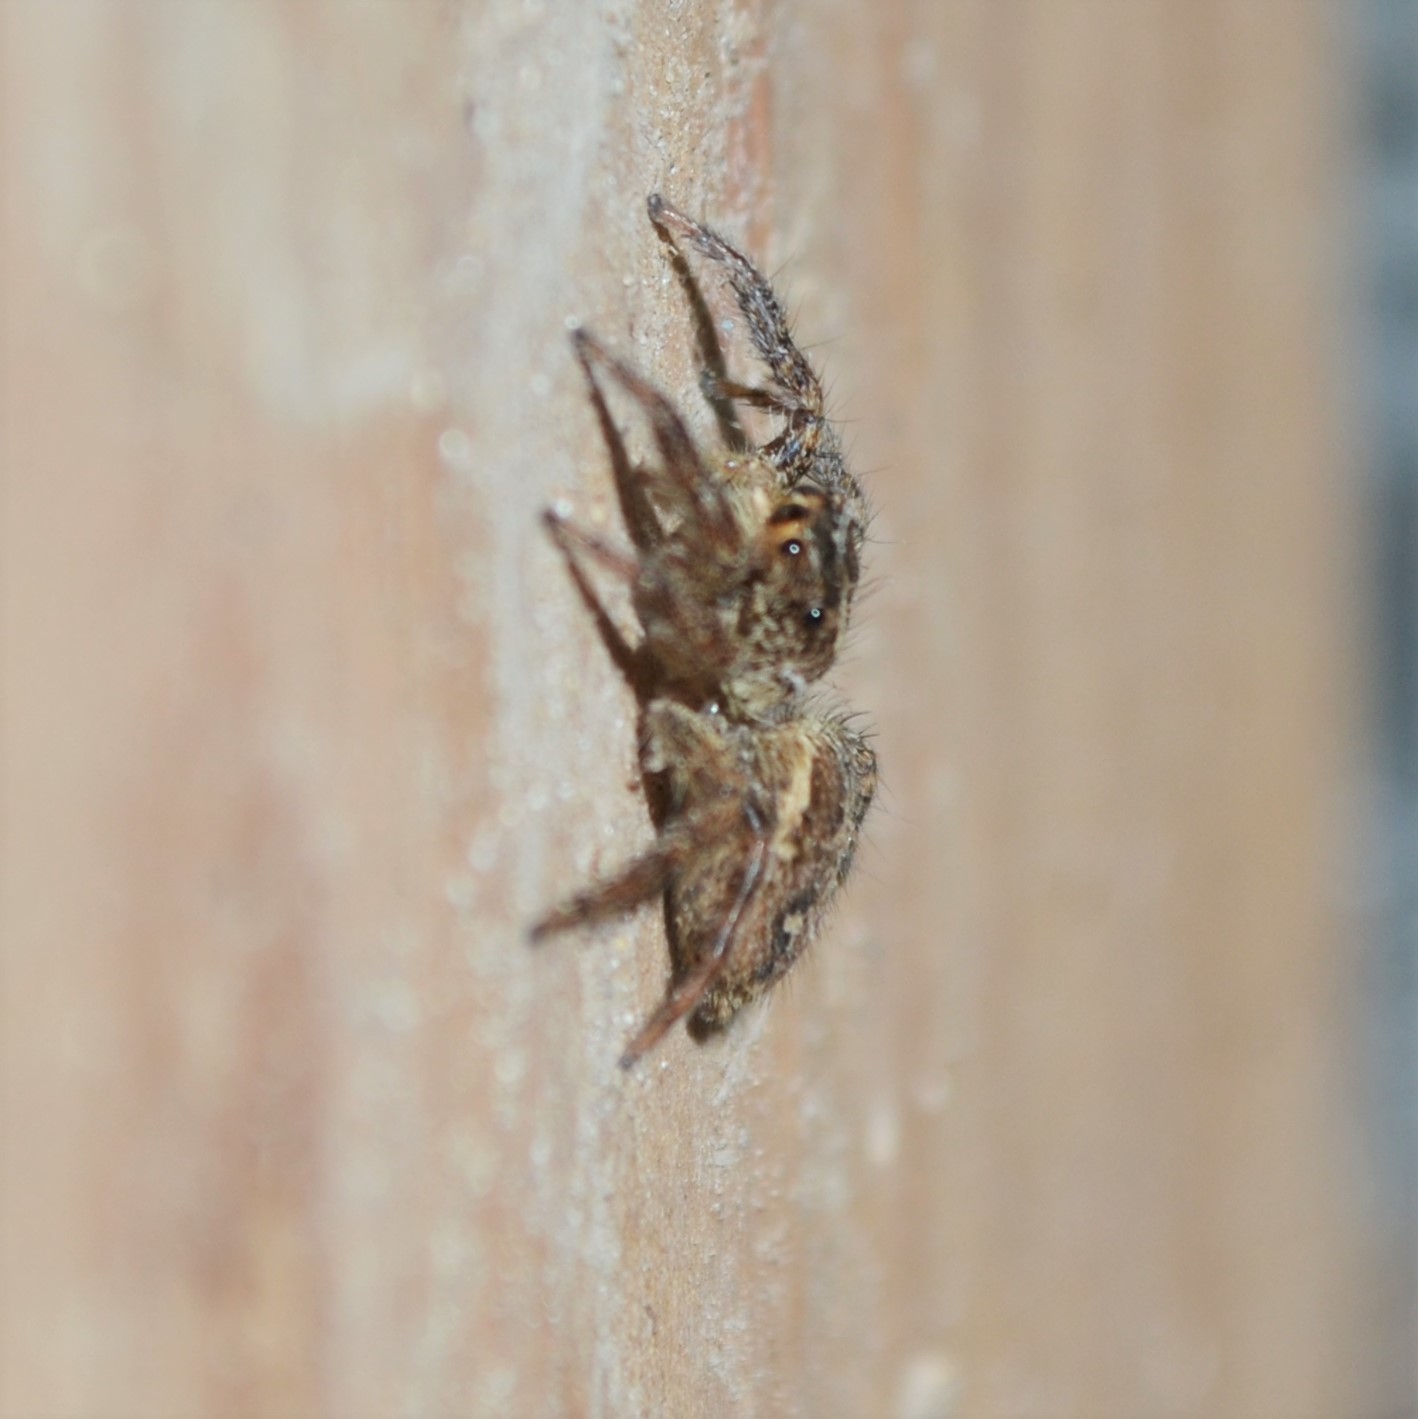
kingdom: Animalia
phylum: Arthropoda
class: Arachnida
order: Araneae
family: Salticidae
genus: Plexippus
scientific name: Plexippus paykulli
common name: Pantropical jumper
